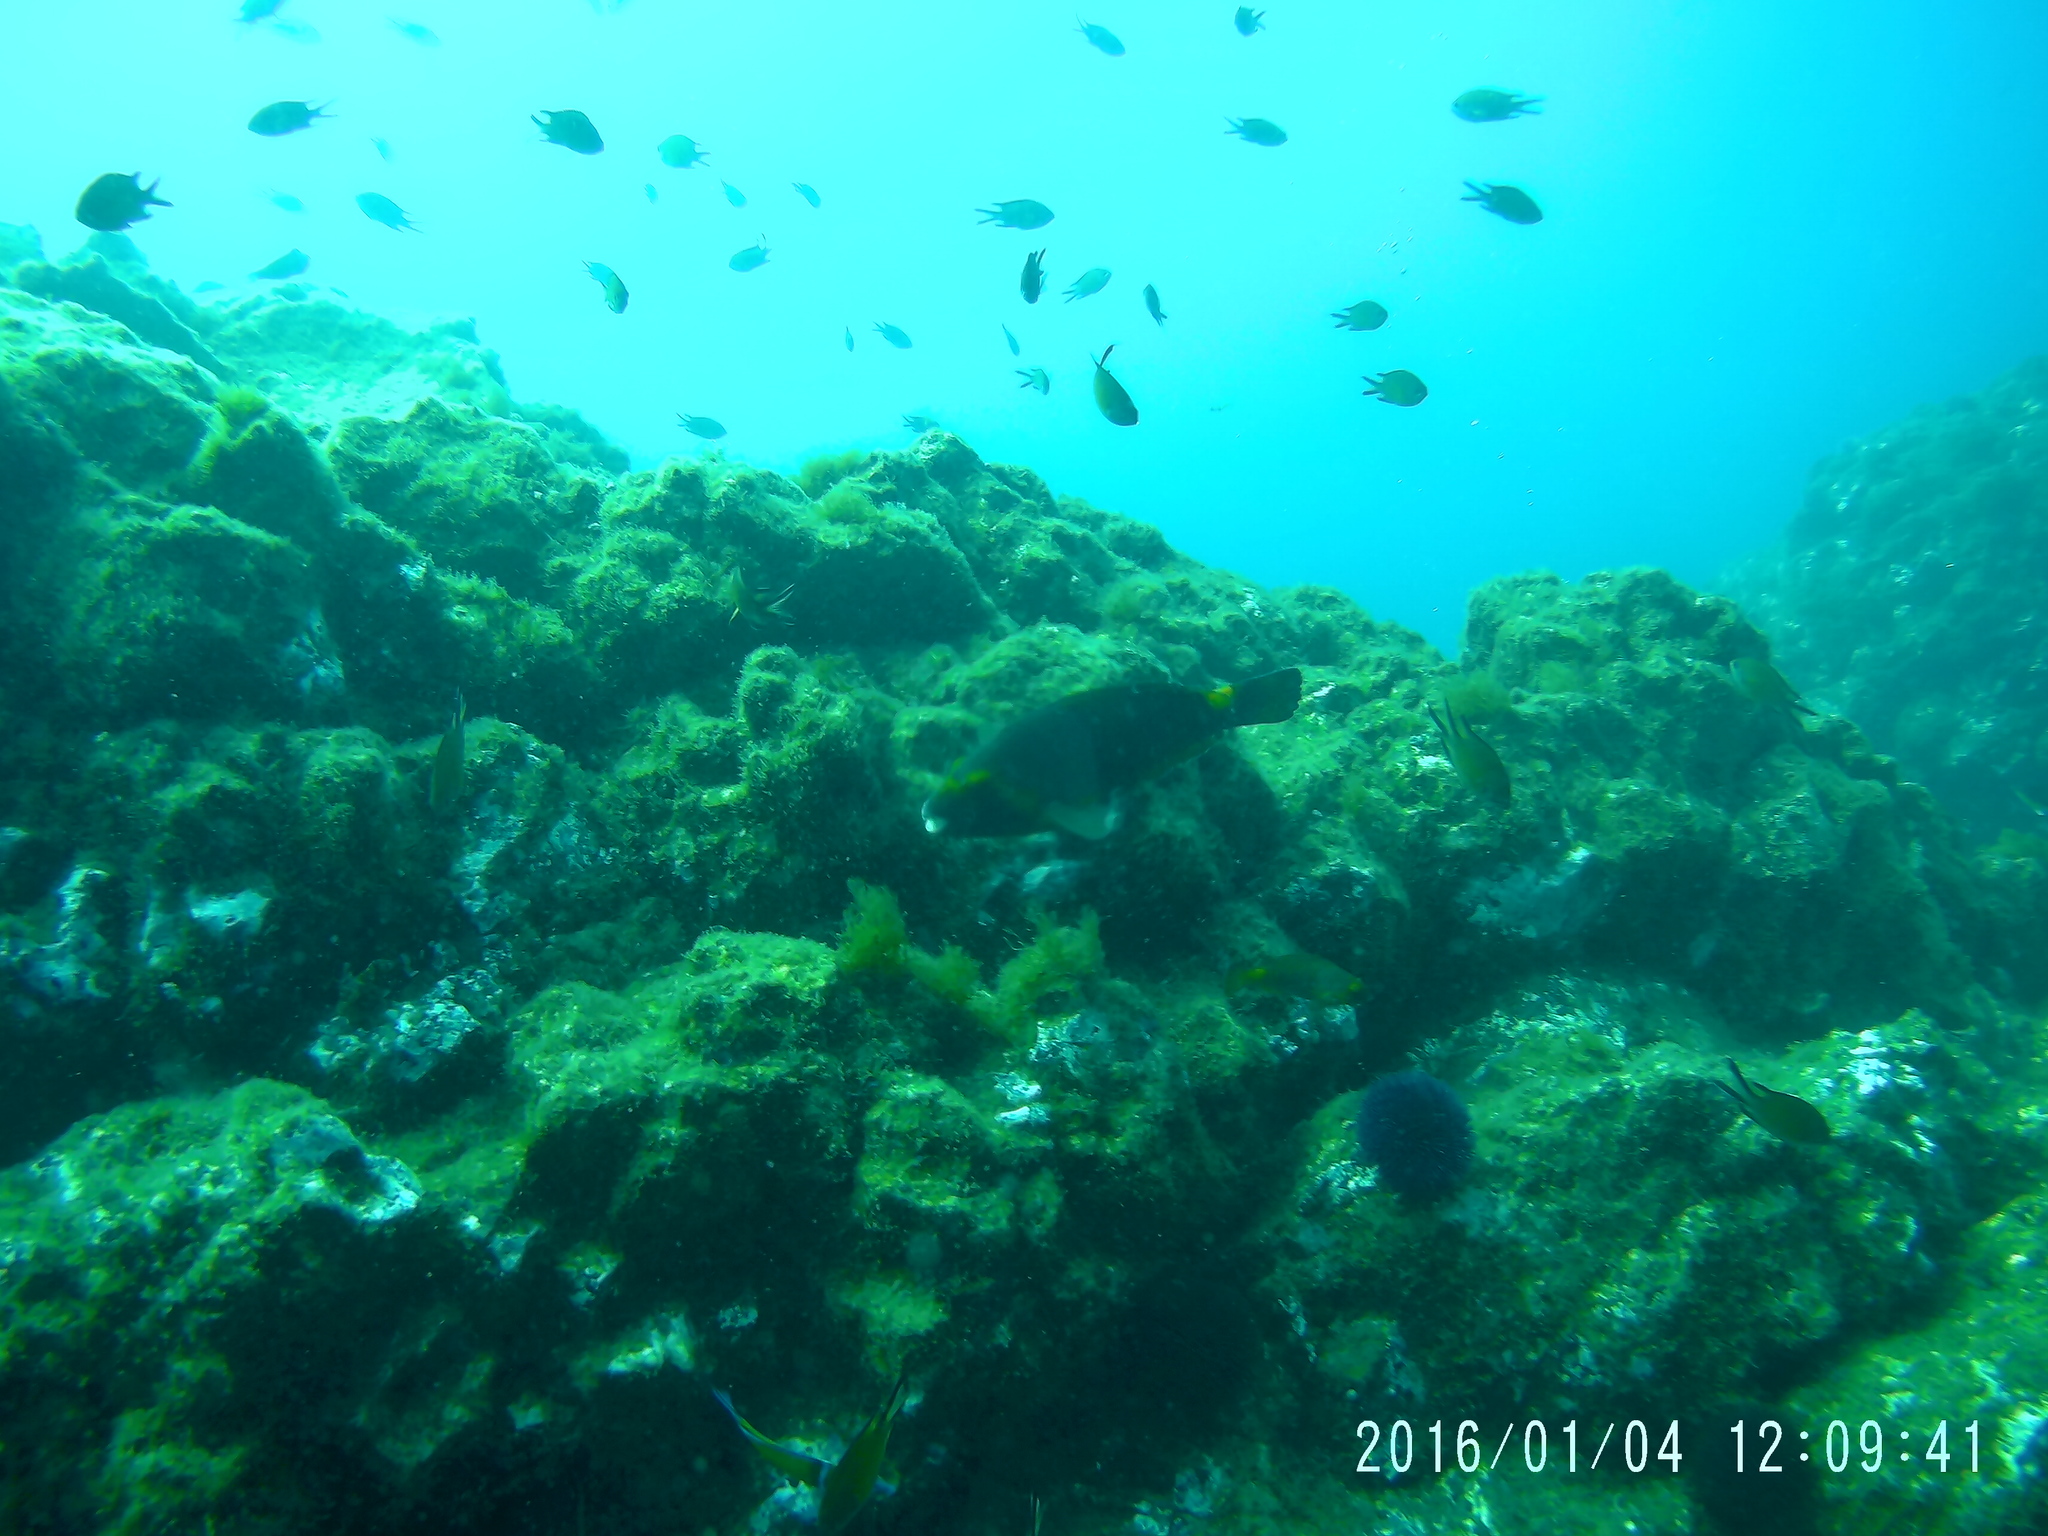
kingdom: Animalia
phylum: Chordata
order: Perciformes
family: Scaridae
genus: Sparisoma
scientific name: Sparisoma cretense
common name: Parrotfish
